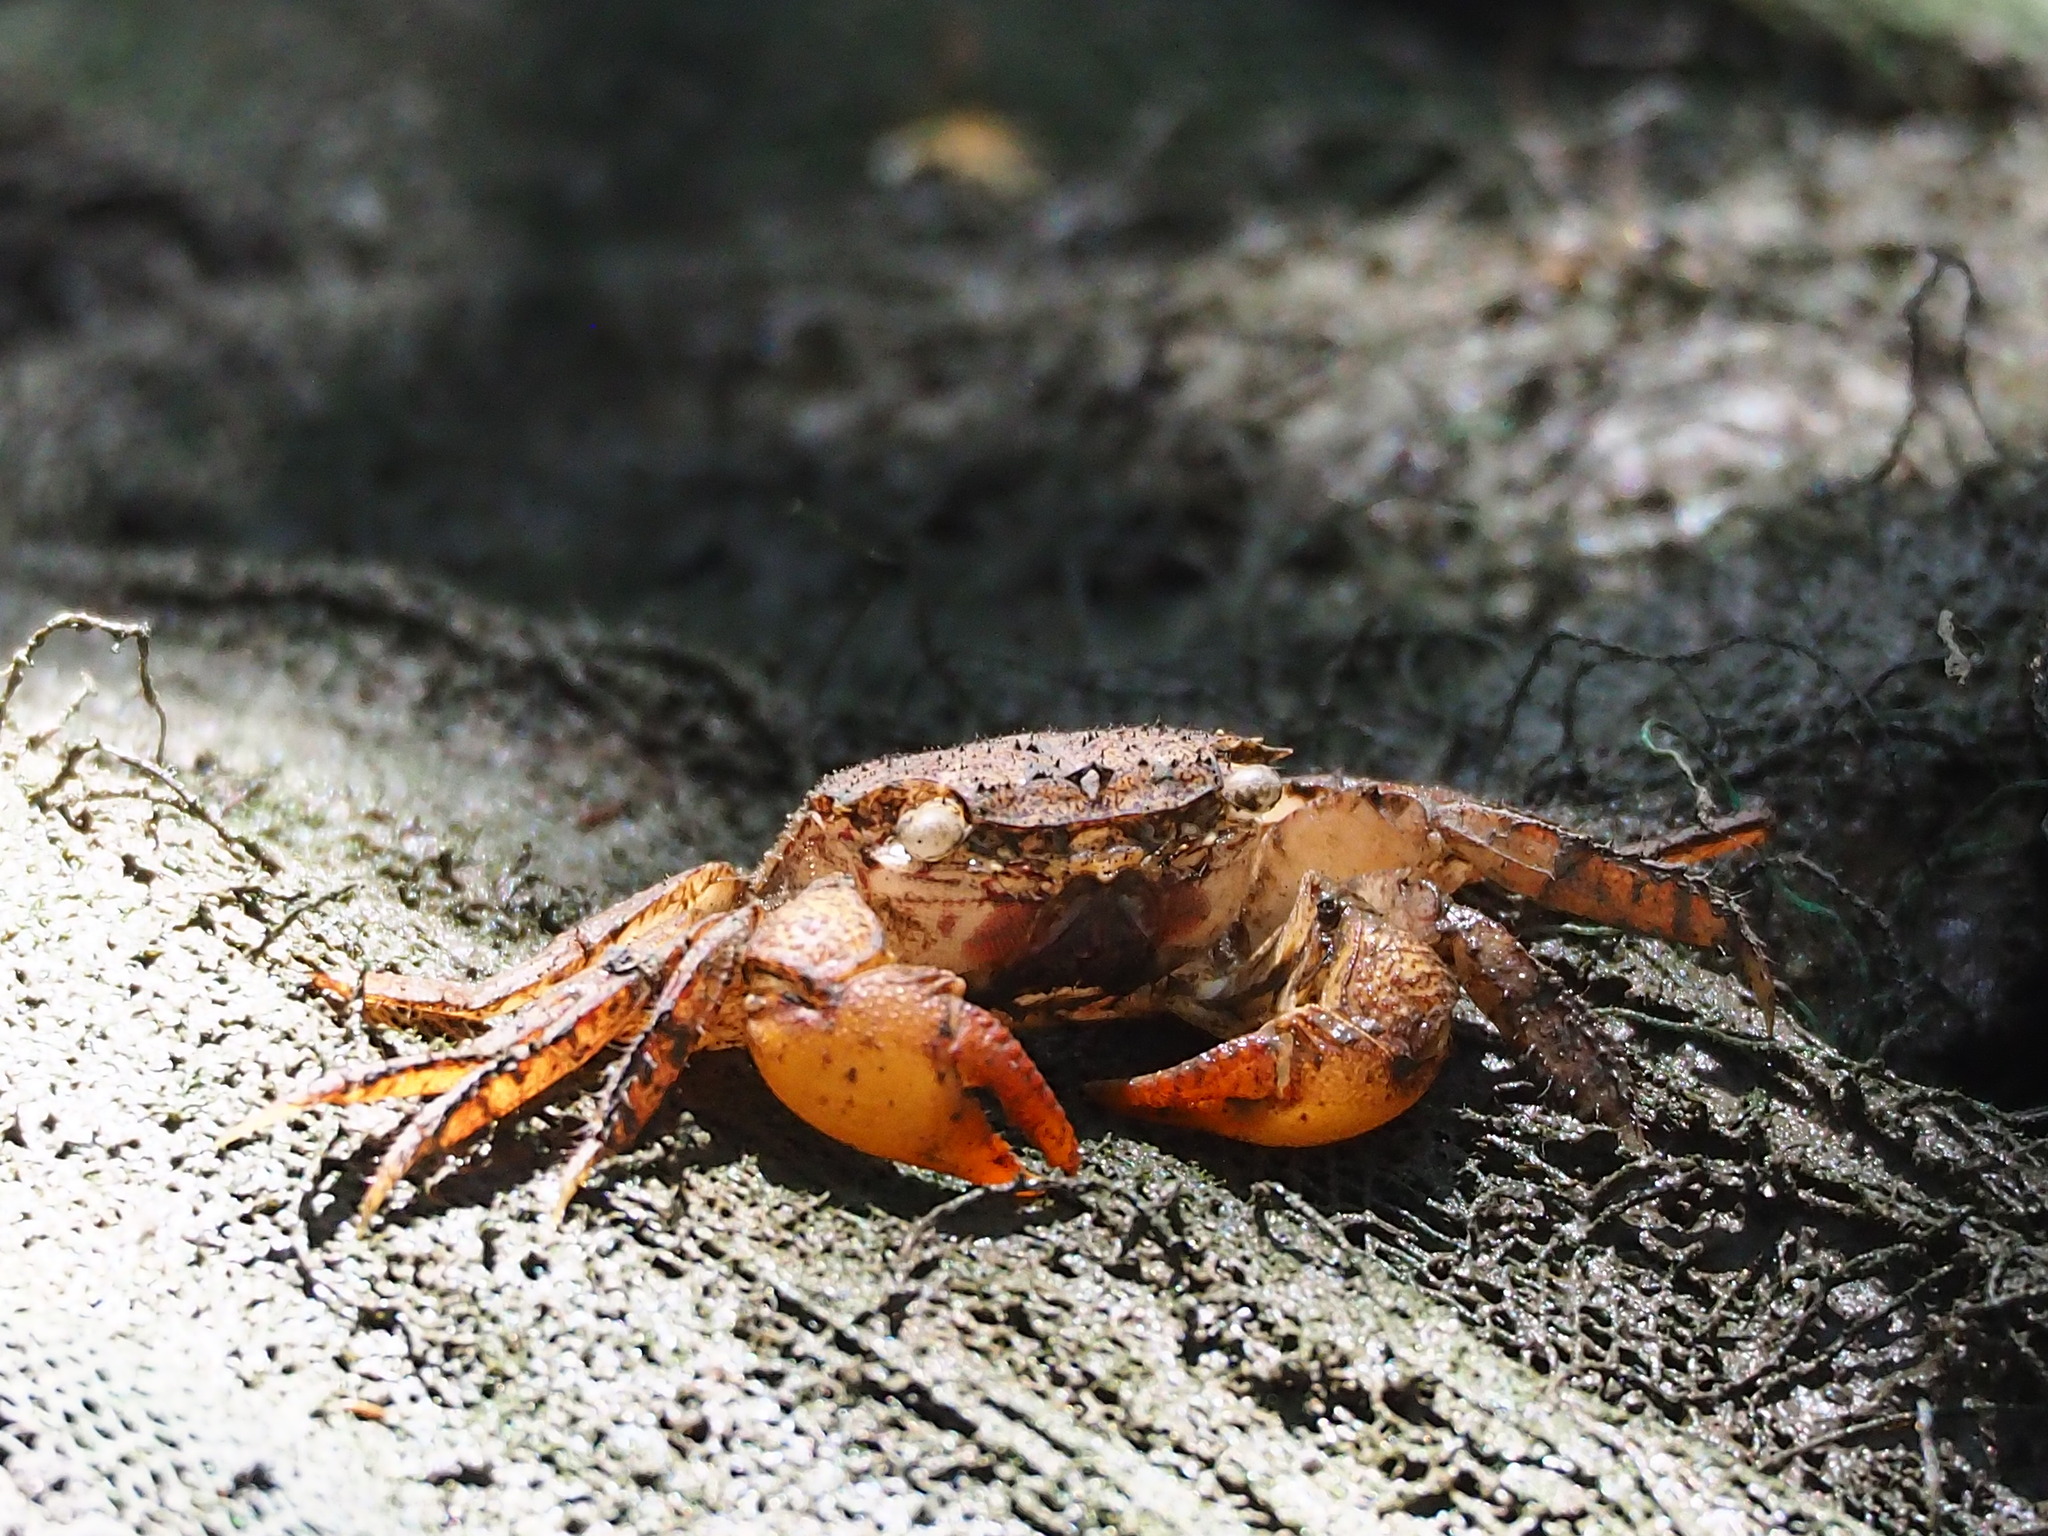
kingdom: Animalia
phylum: Arthropoda
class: Malacostraca
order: Decapoda
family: Sesarmidae
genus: Parasesarma
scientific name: Parasesarma affine
